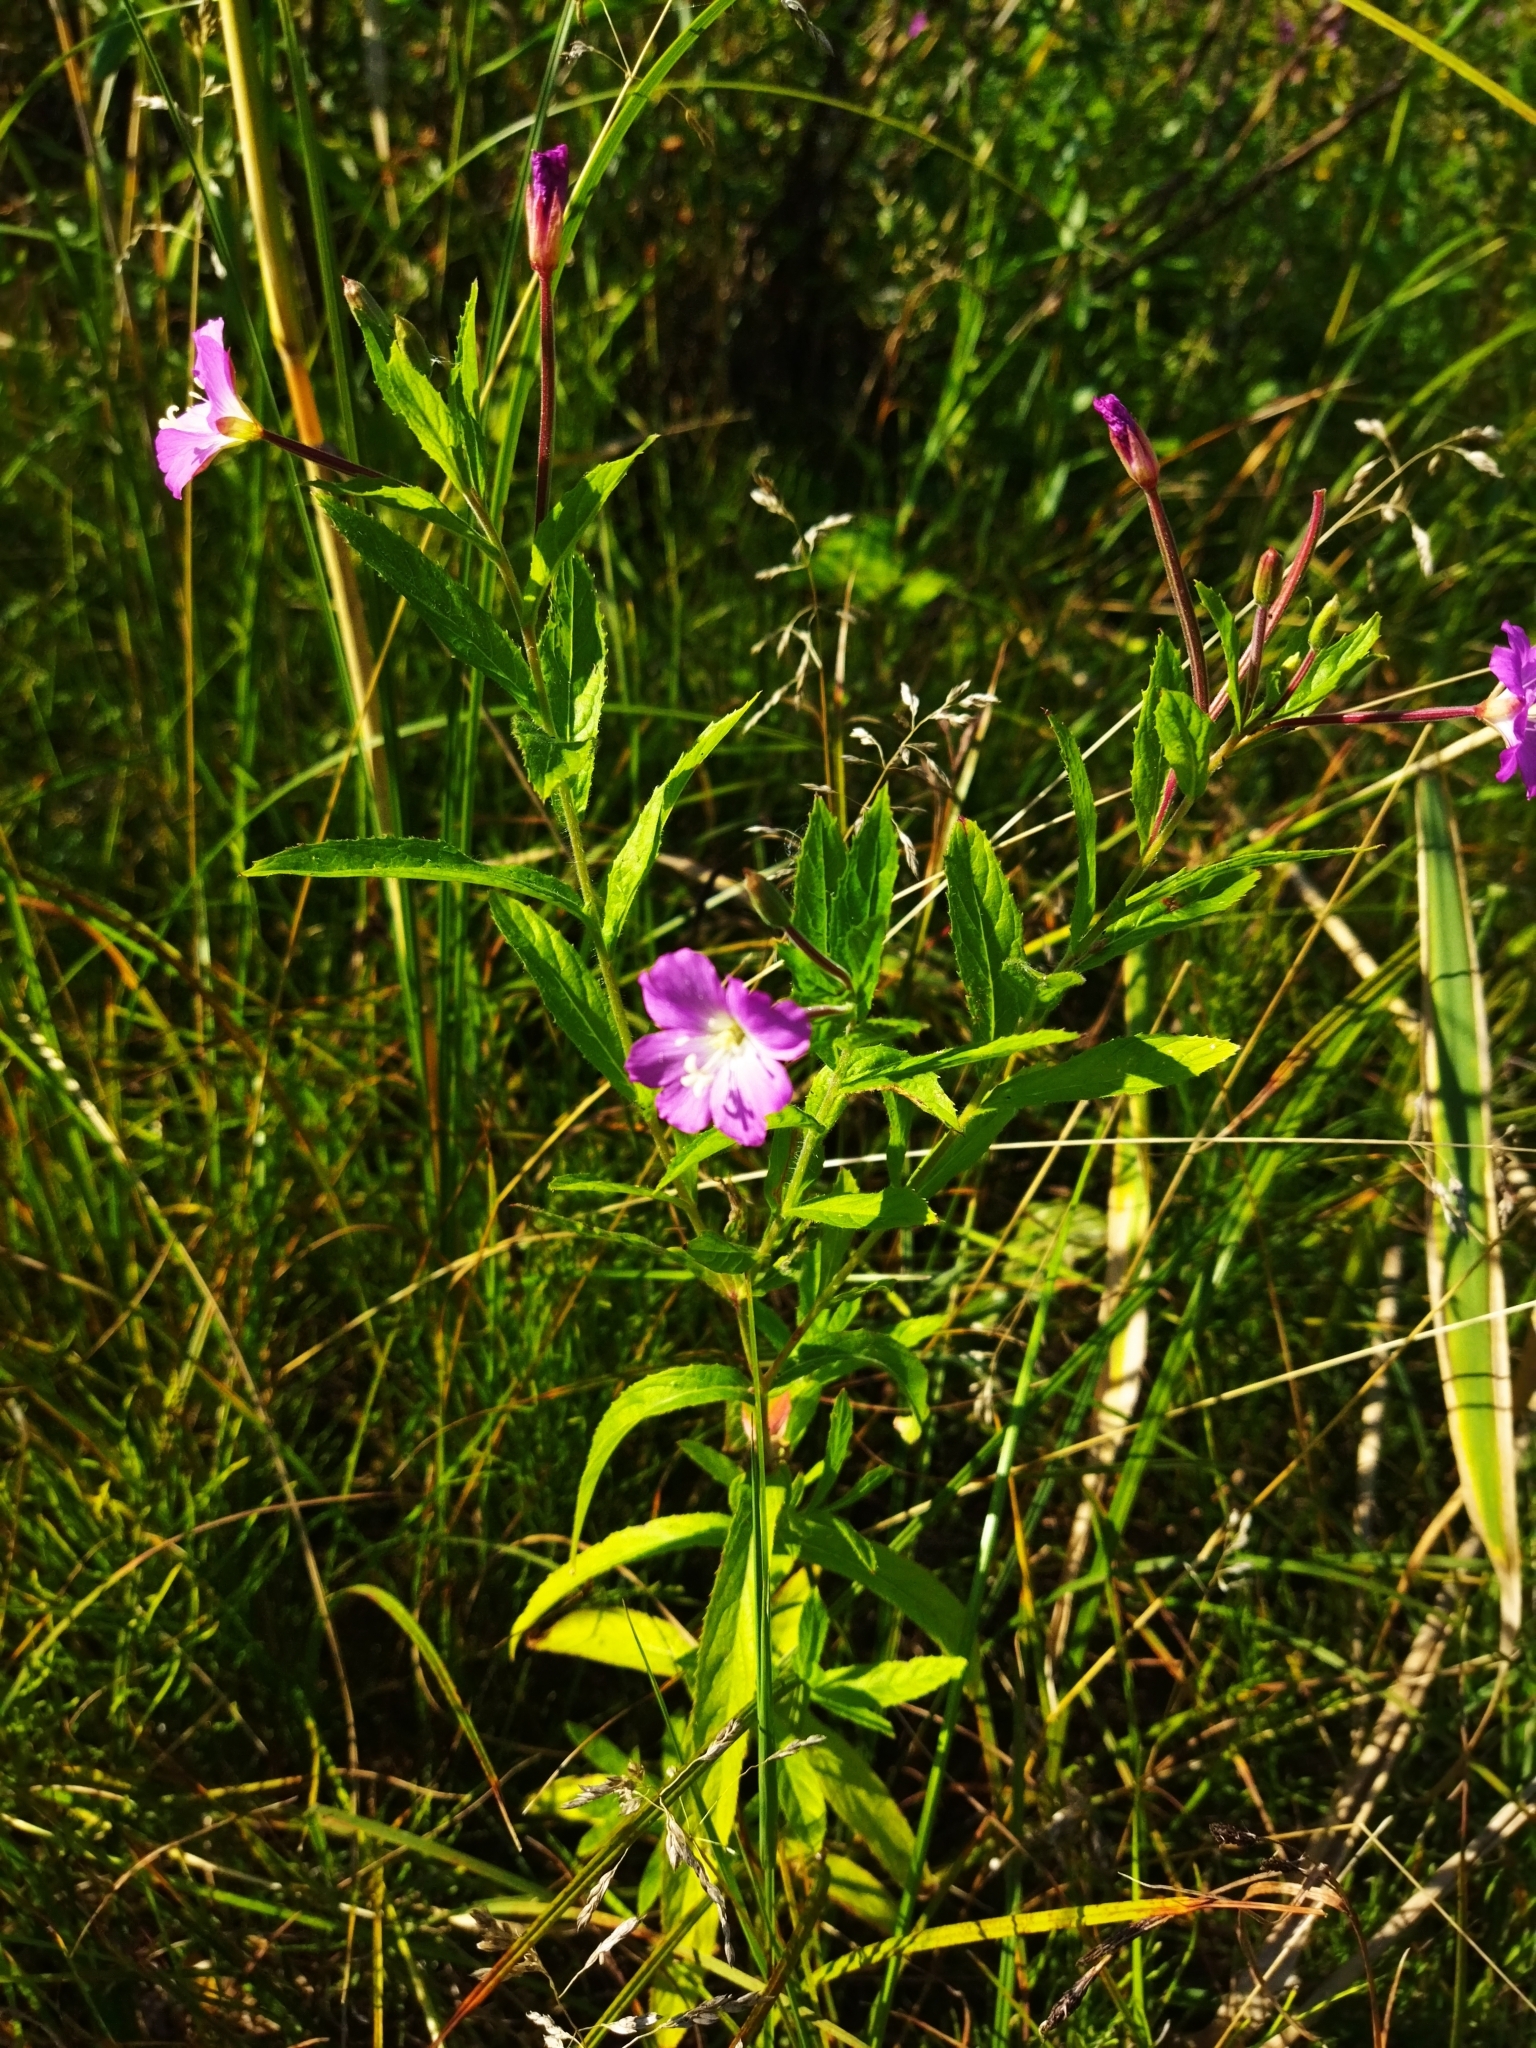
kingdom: Plantae
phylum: Tracheophyta
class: Magnoliopsida
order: Myrtales
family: Onagraceae
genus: Epilobium
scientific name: Epilobium hirsutum
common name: Great willowherb
